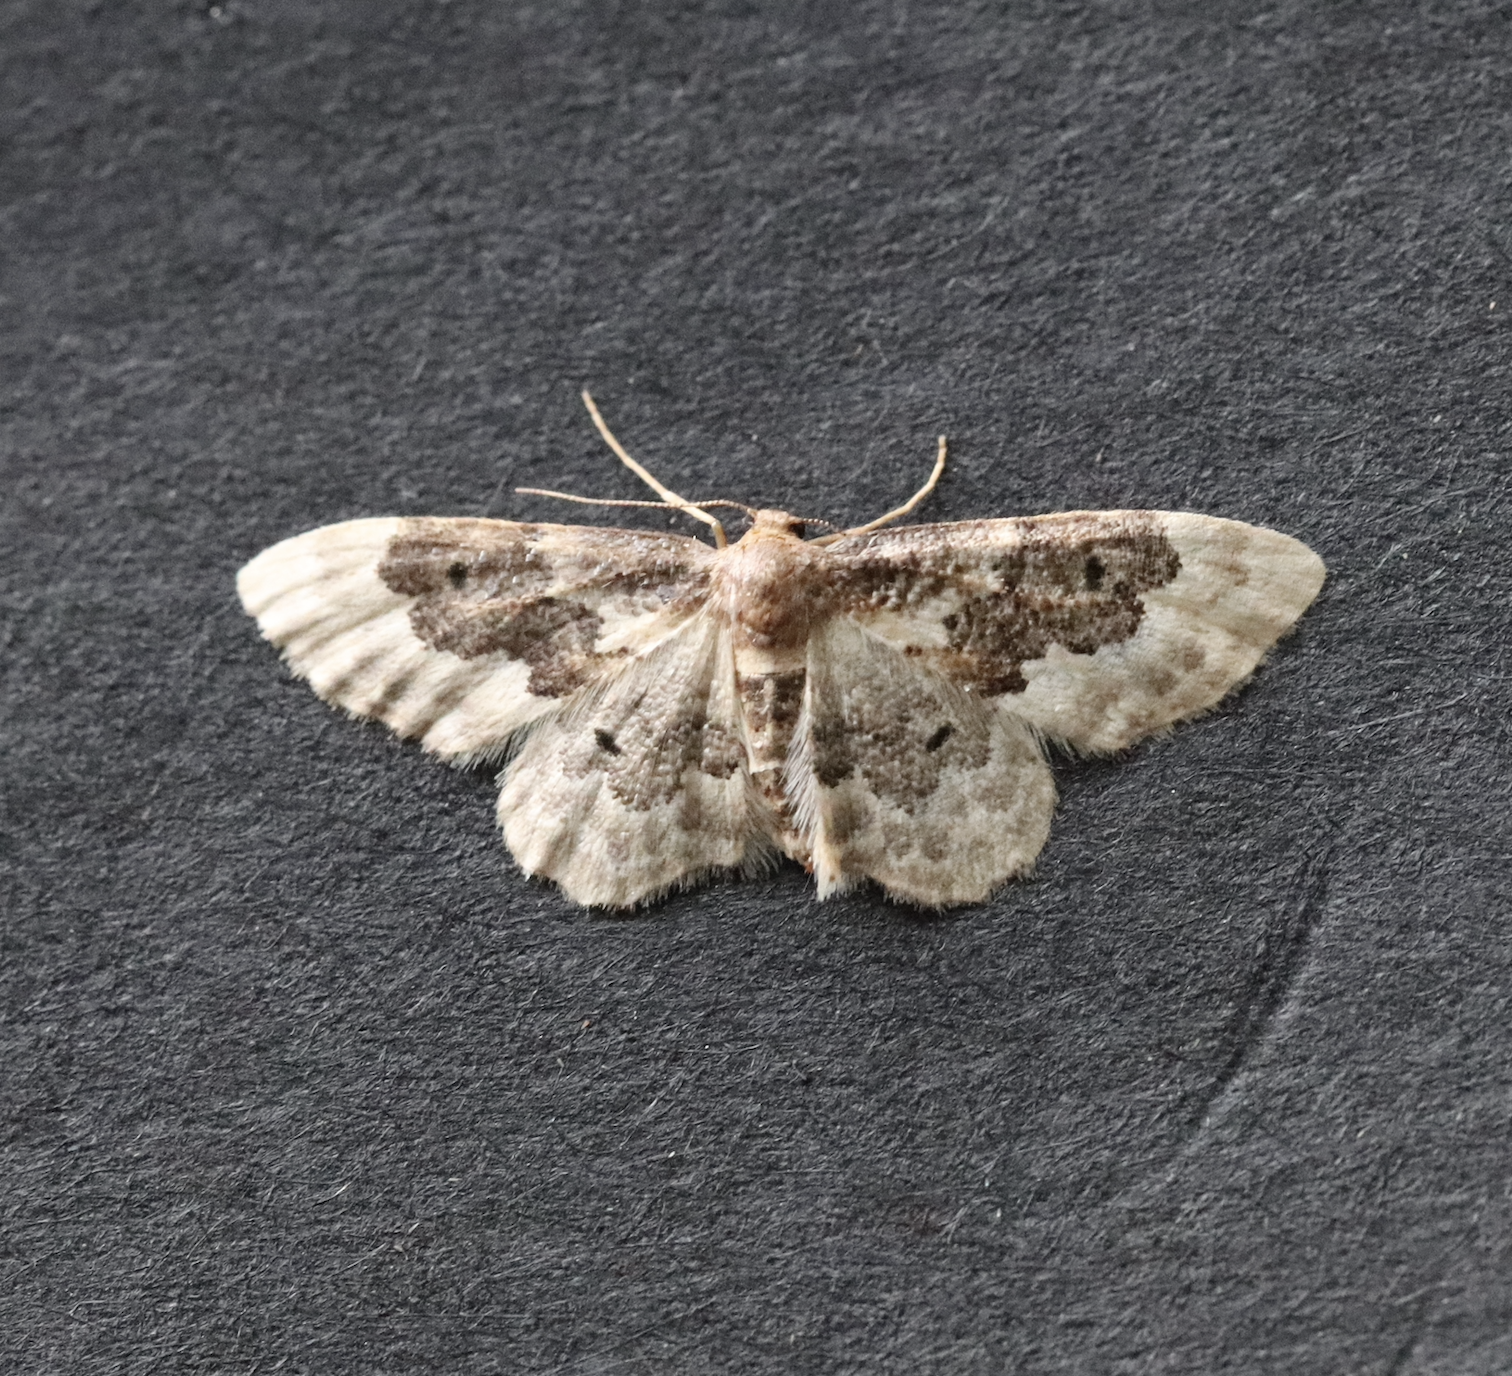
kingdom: Animalia
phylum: Arthropoda
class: Insecta
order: Lepidoptera
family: Geometridae
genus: Idaea
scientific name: Idaea rusticata
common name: Least carpet
